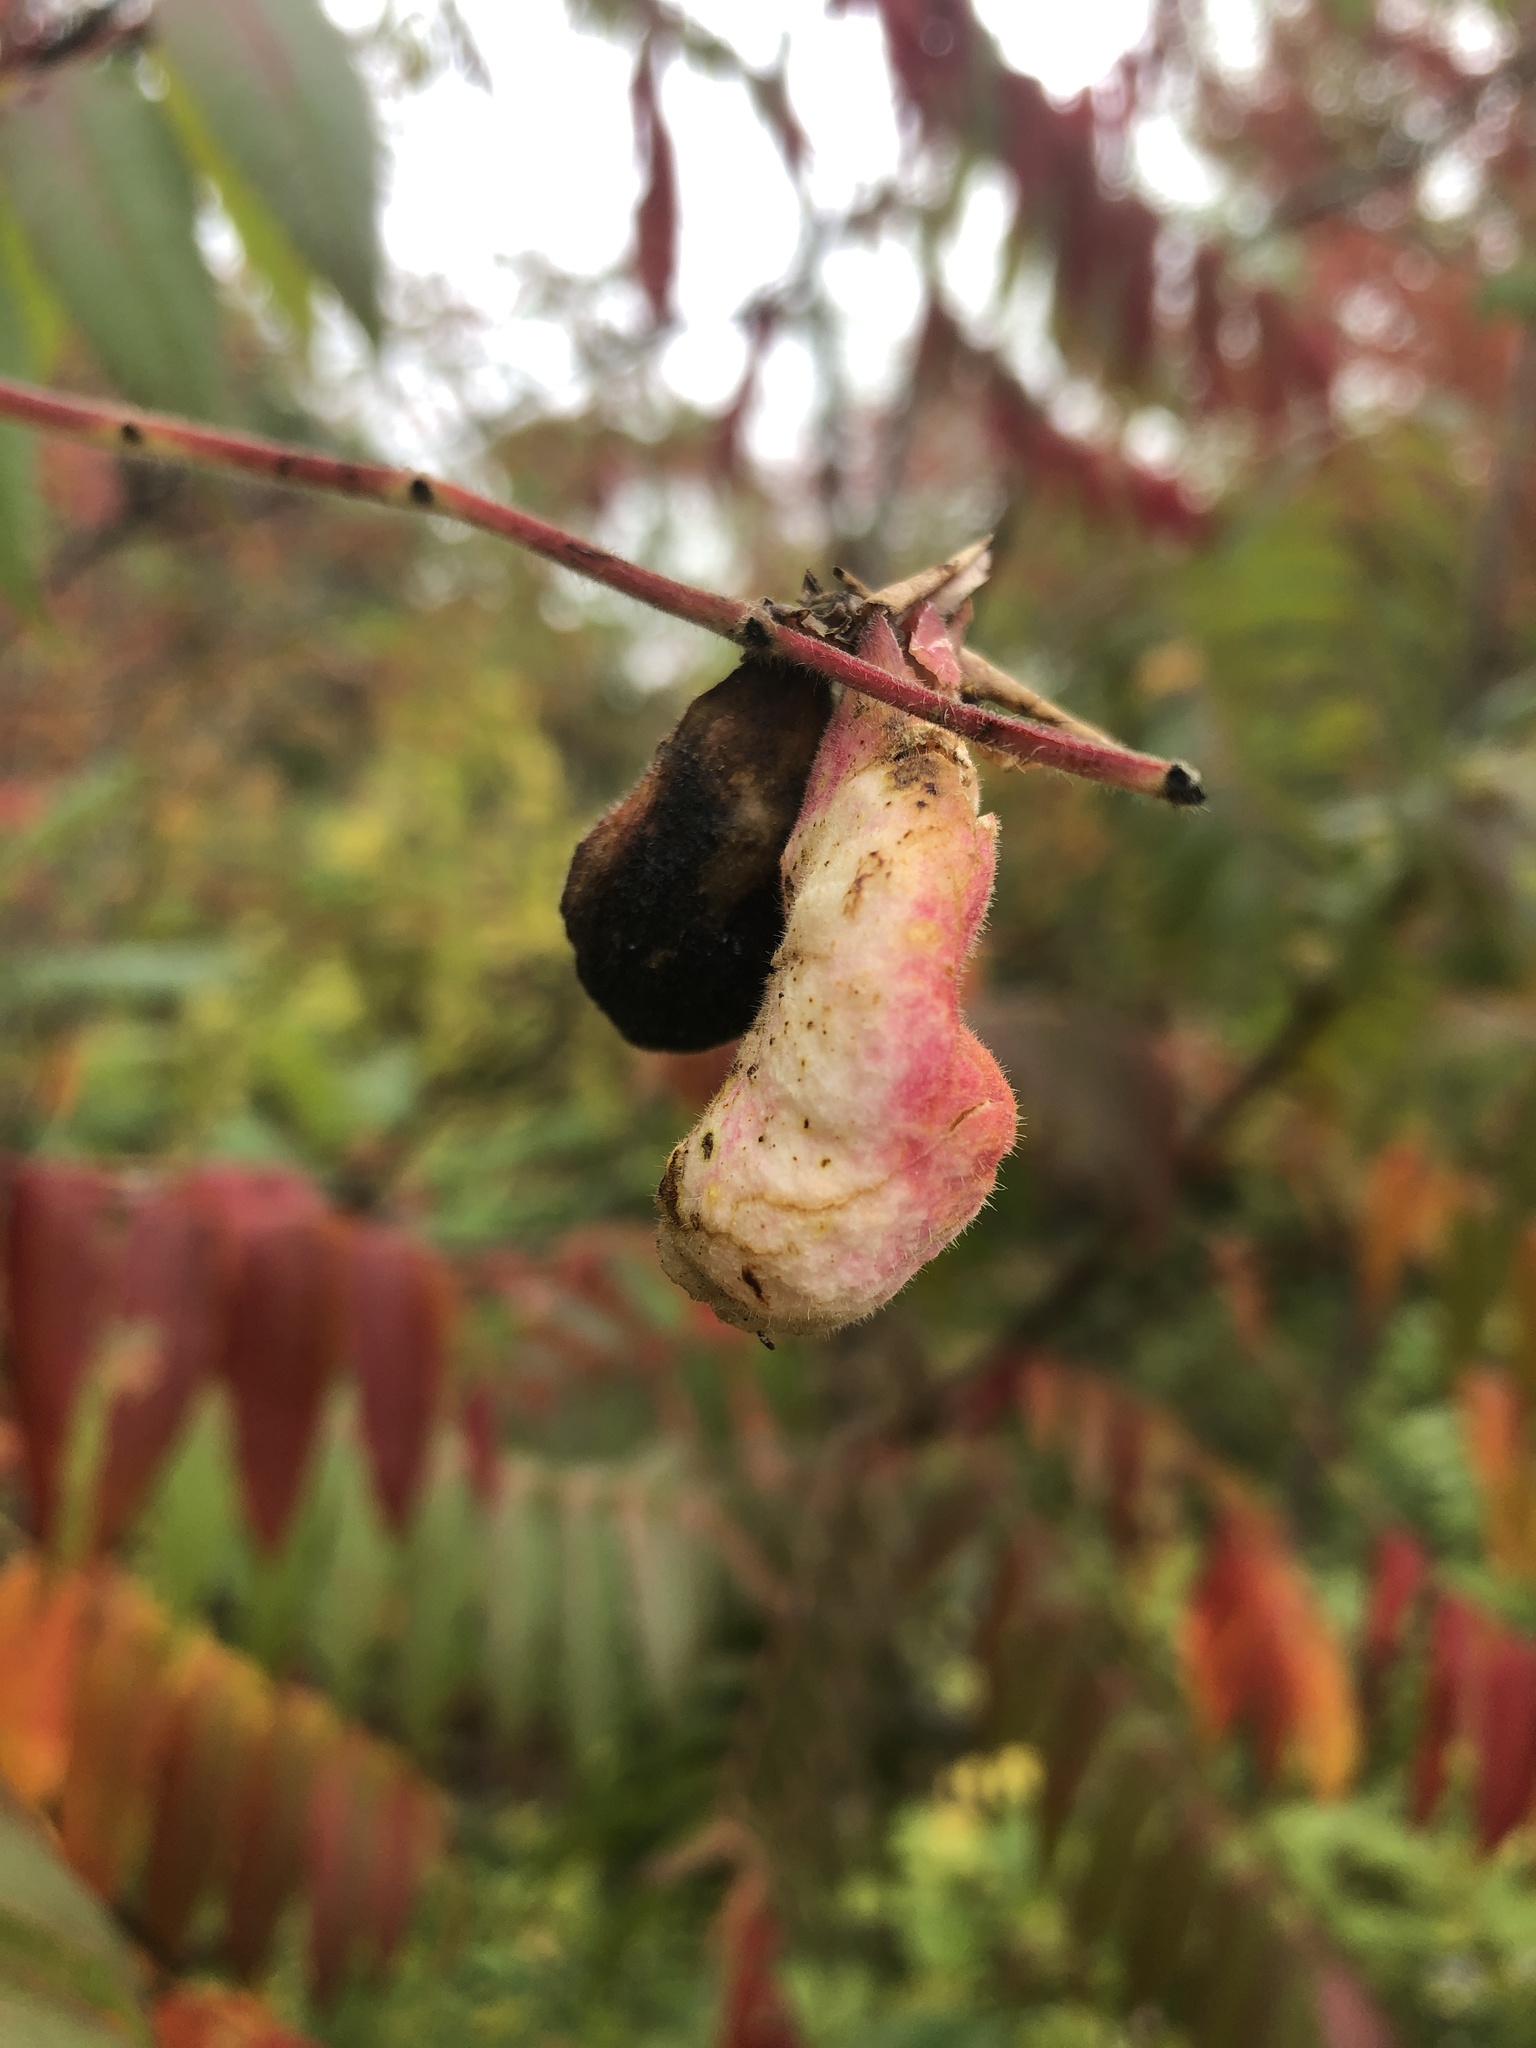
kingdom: Animalia
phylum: Arthropoda
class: Insecta
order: Hemiptera
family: Aphididae
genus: Melaphis
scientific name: Melaphis rhois
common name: Sumac gall aphid
